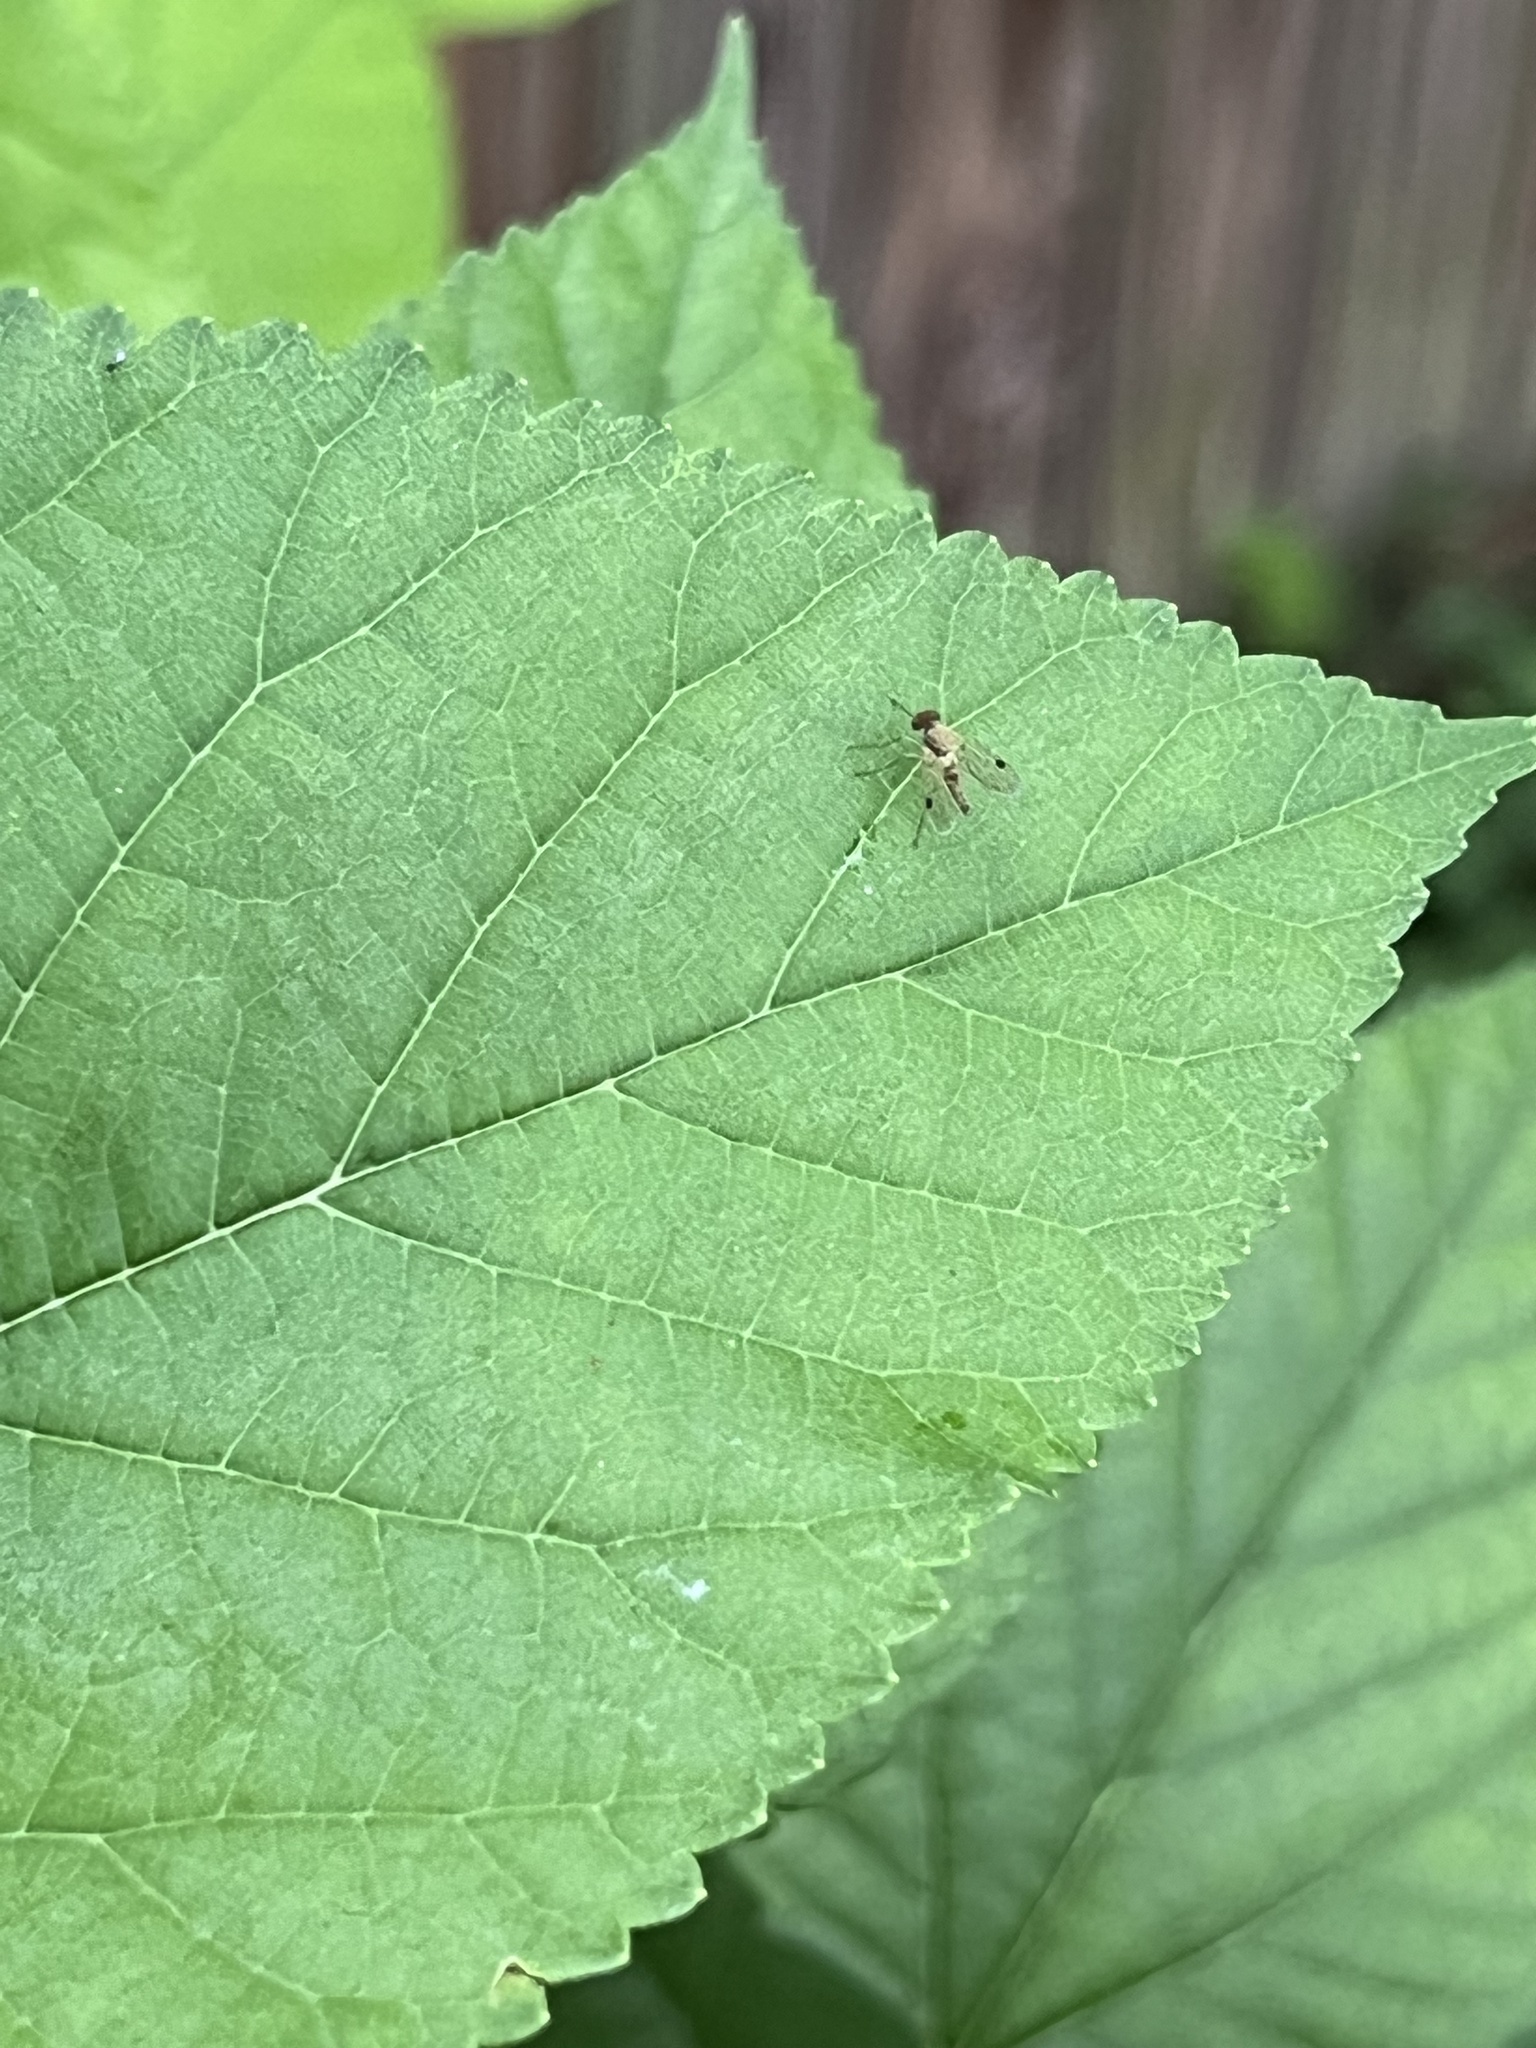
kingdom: Animalia
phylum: Arthropoda
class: Insecta
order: Diptera
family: Rhagionidae
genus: Chrysopilus
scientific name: Chrysopilus modestus
